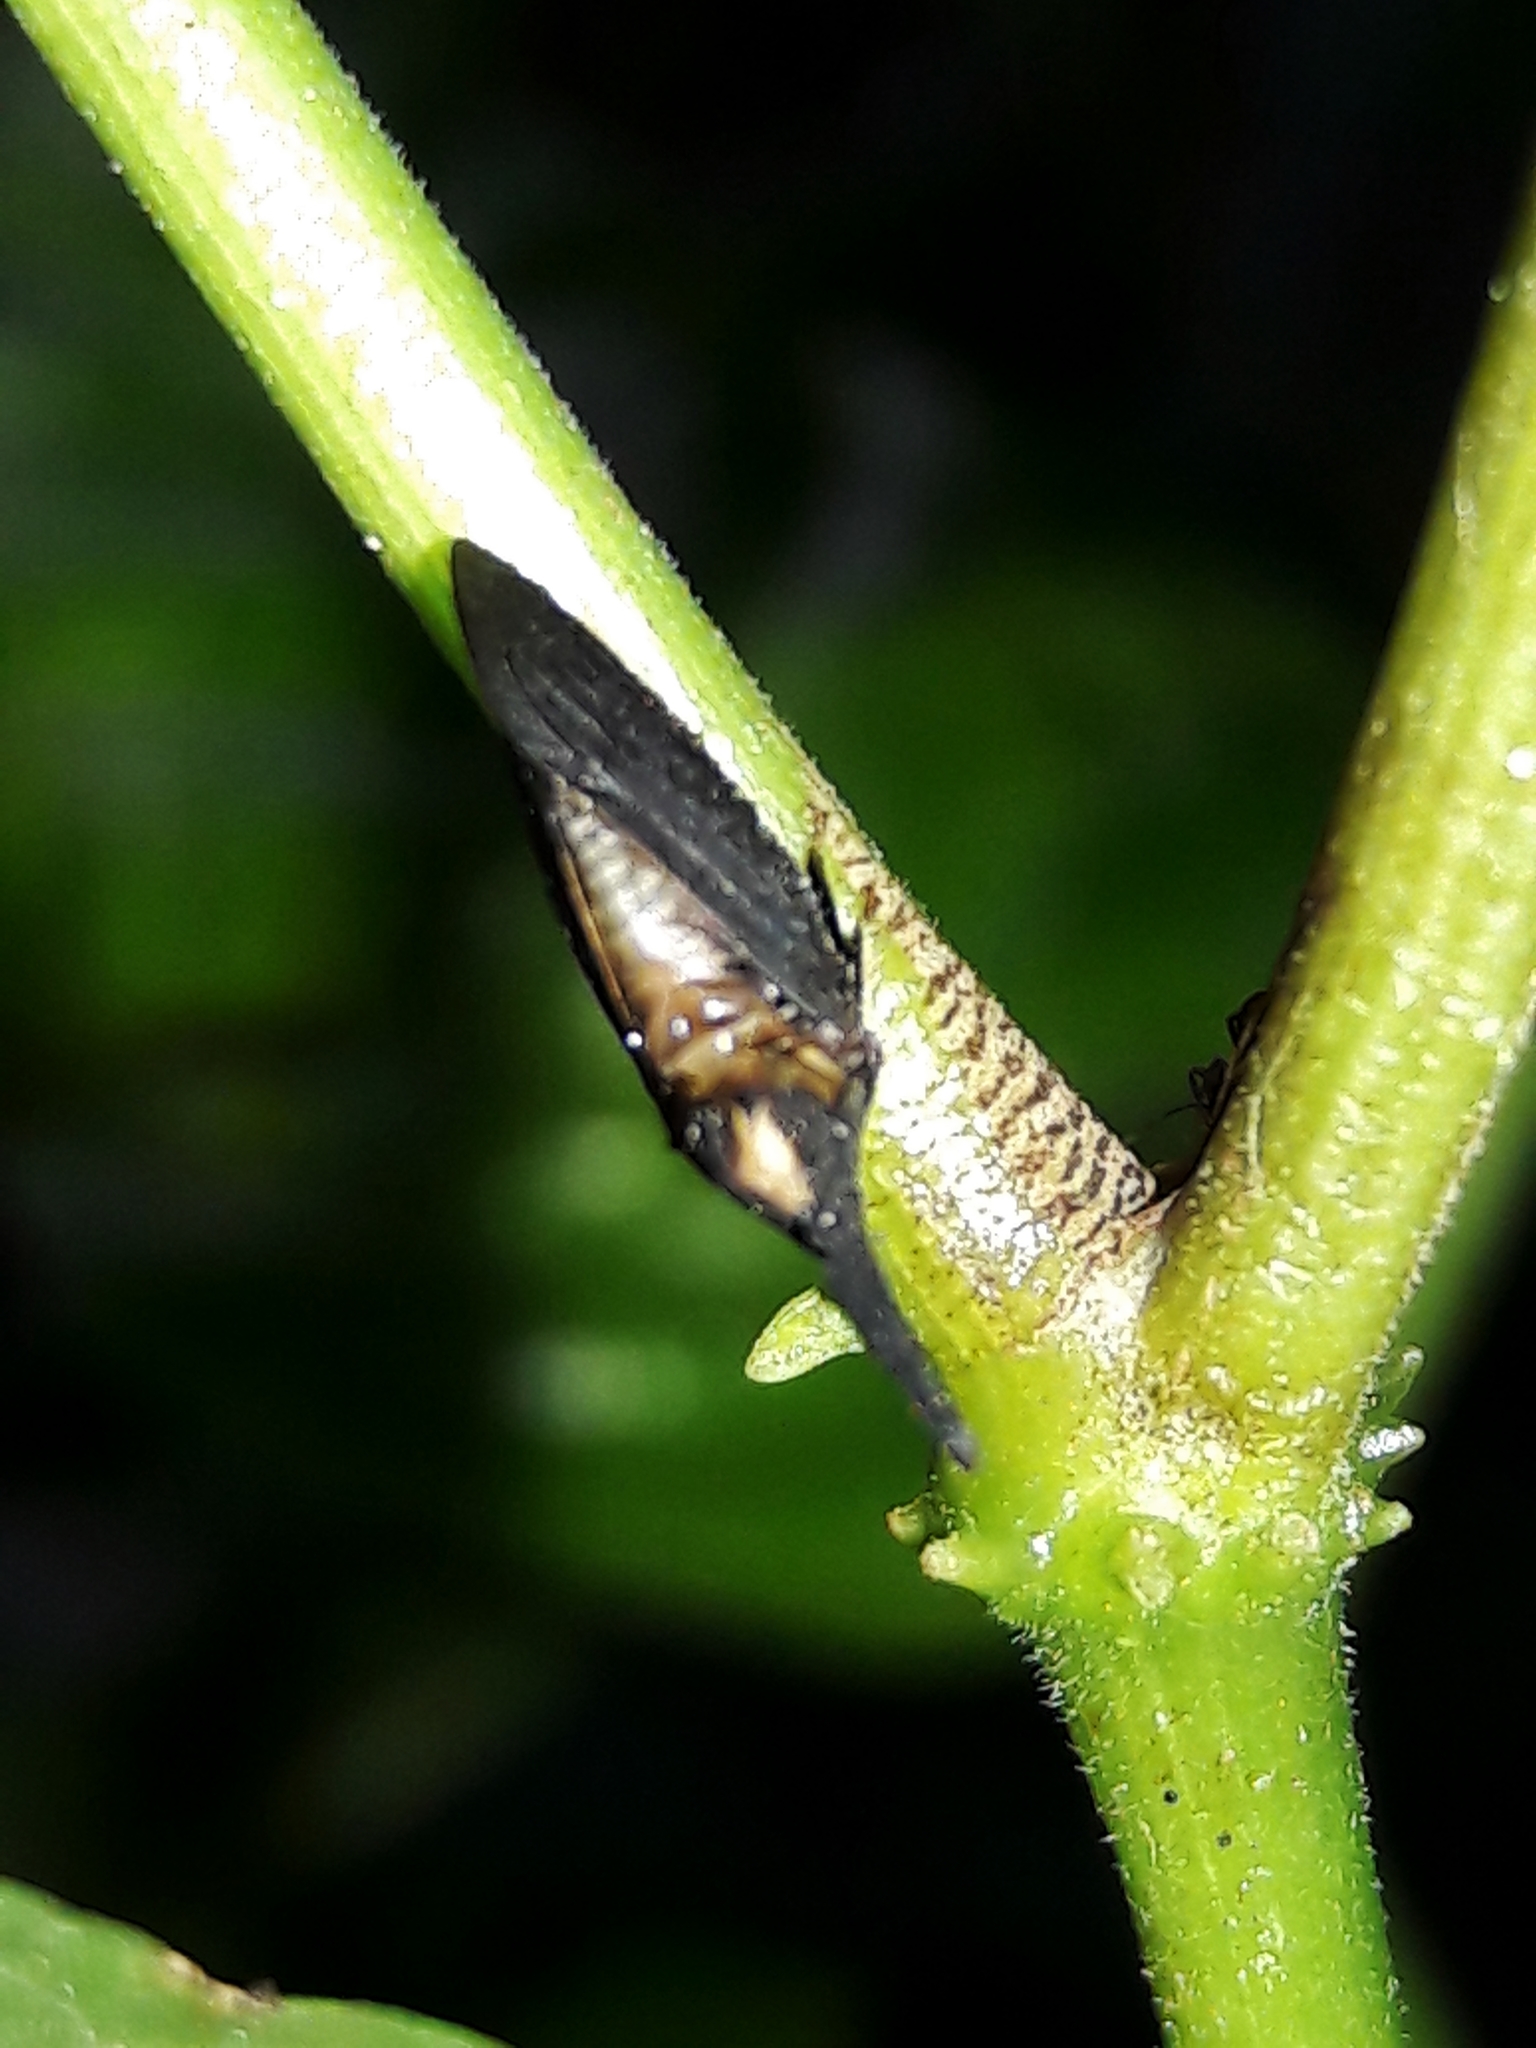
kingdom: Animalia
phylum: Arthropoda
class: Insecta
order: Hemiptera
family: Membracidae
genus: Enchenopa
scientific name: Enchenopa albidorsa
